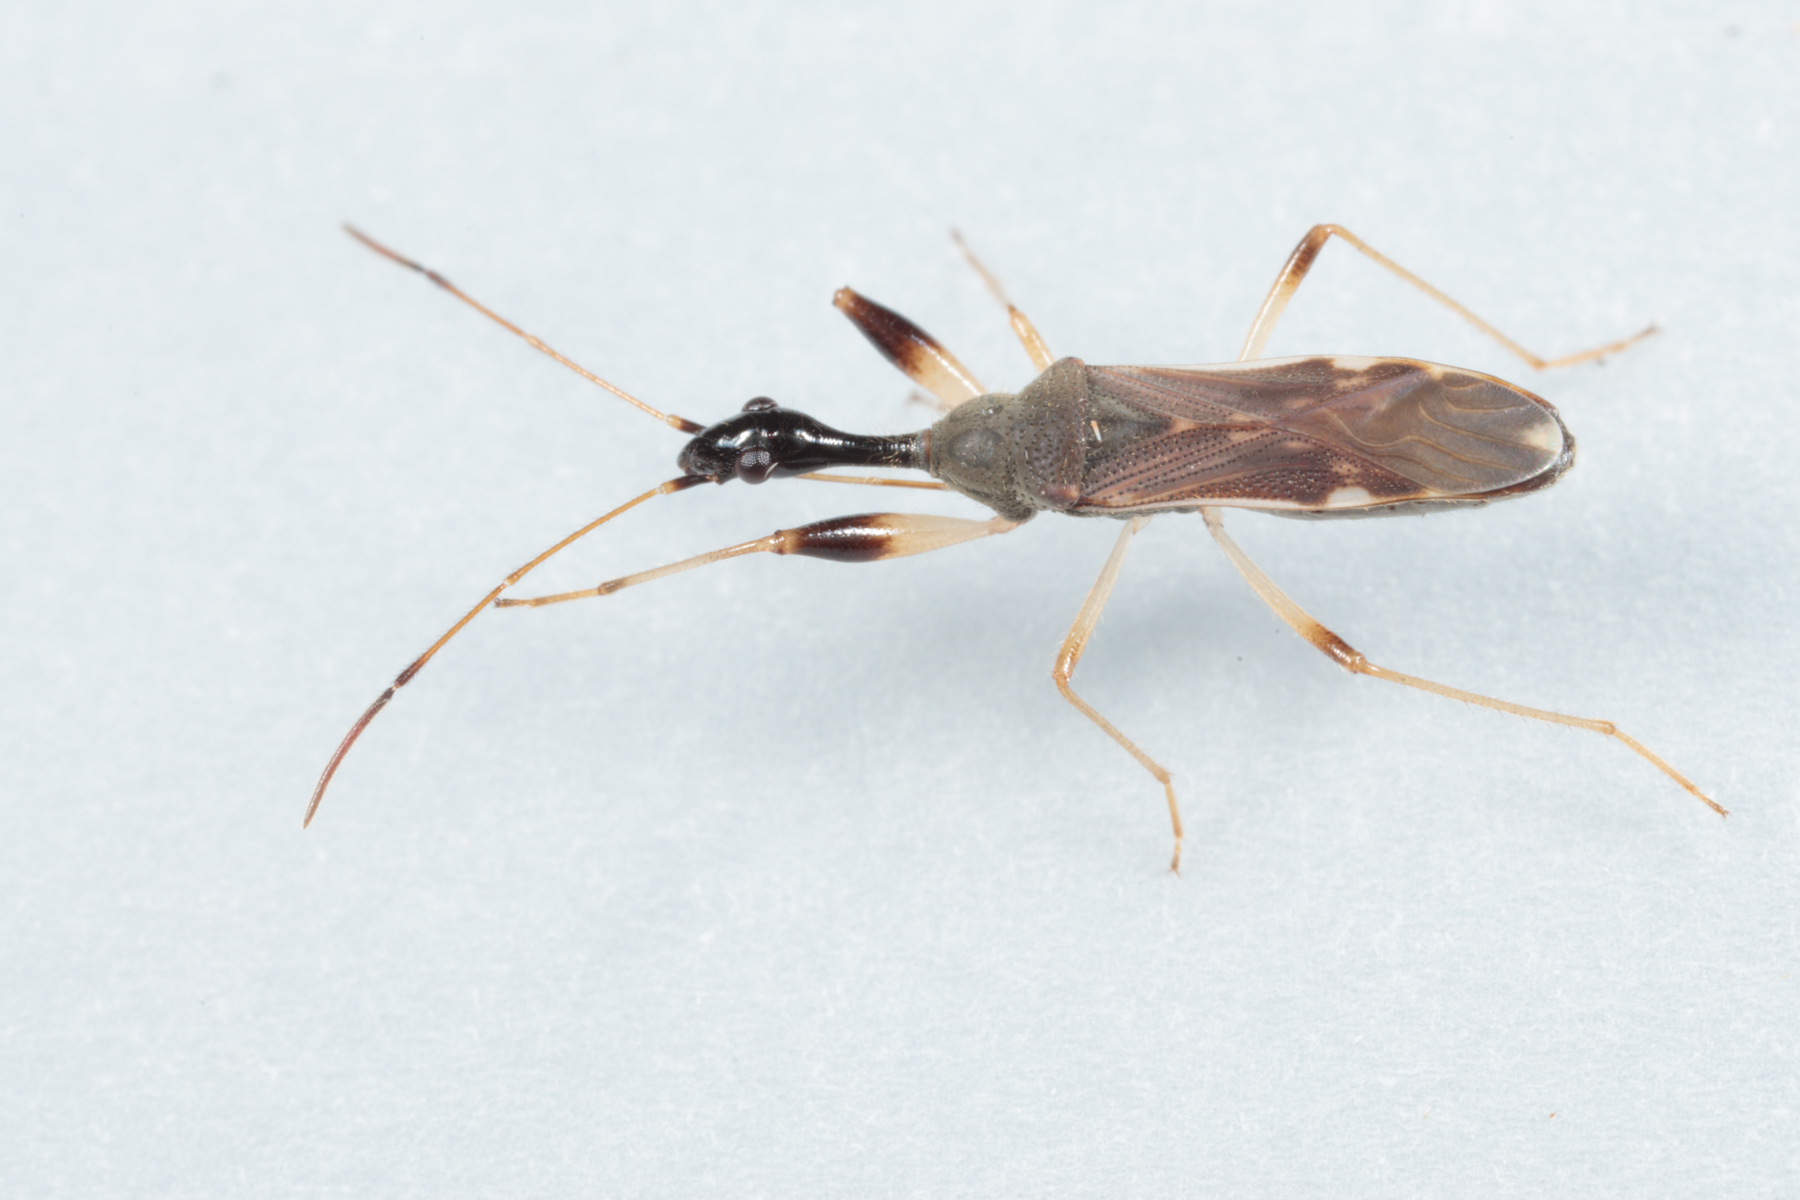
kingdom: Animalia
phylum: Arthropoda
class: Insecta
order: Hemiptera
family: Rhyparochromidae
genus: Myodocha
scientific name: Myodocha serripes
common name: Long-necked seed bug
